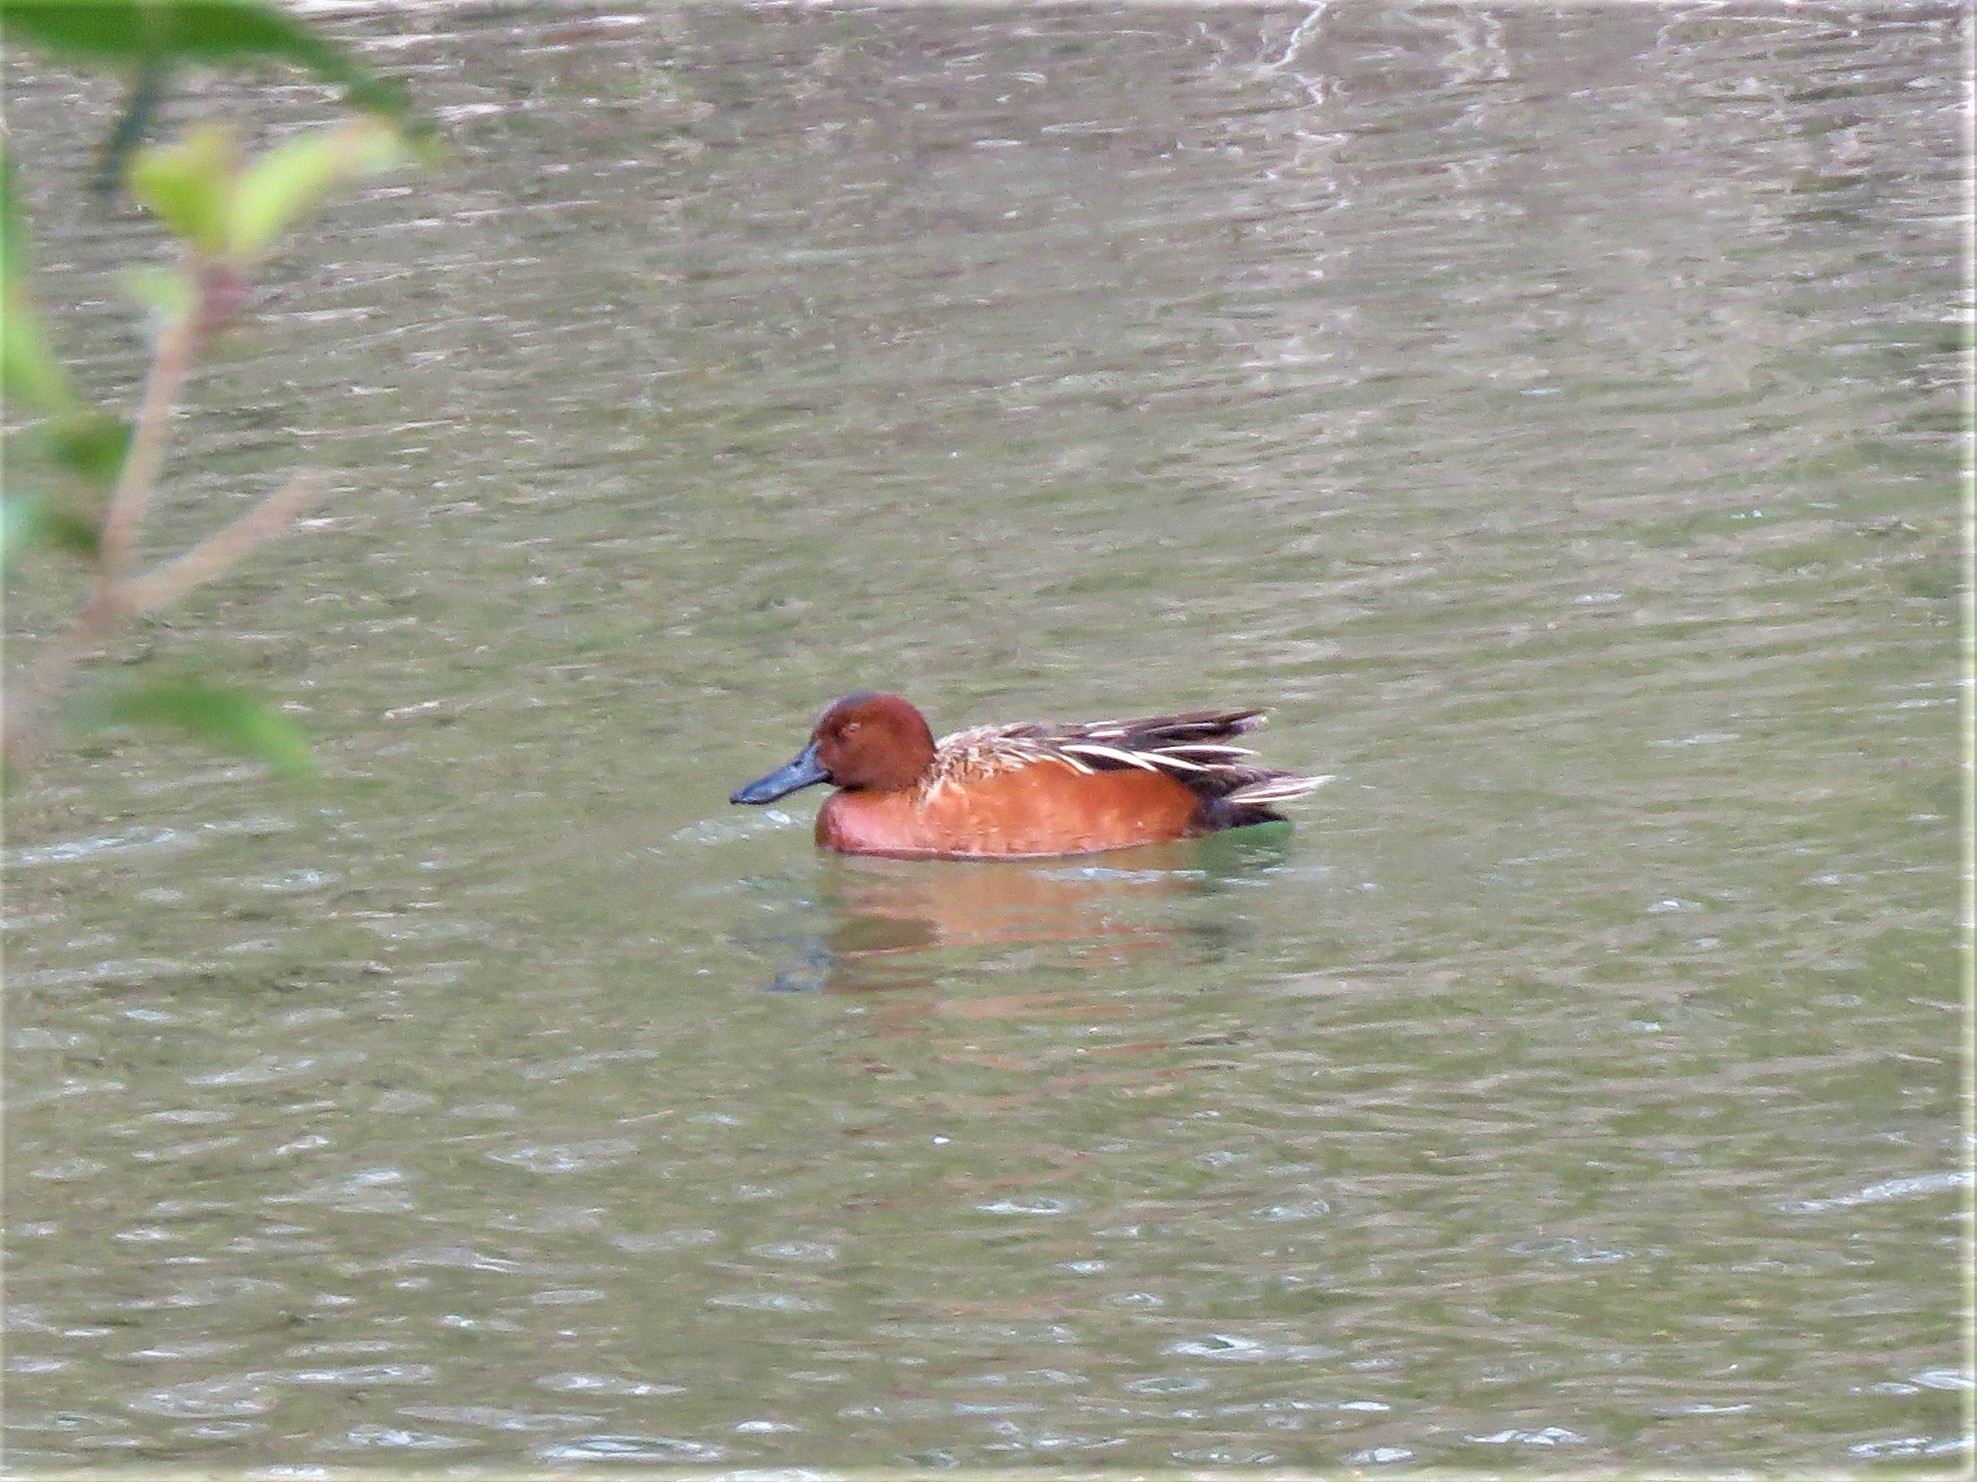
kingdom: Animalia
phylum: Chordata
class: Aves
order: Anseriformes
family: Anatidae
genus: Spatula
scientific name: Spatula cyanoptera
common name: Cinnamon teal
